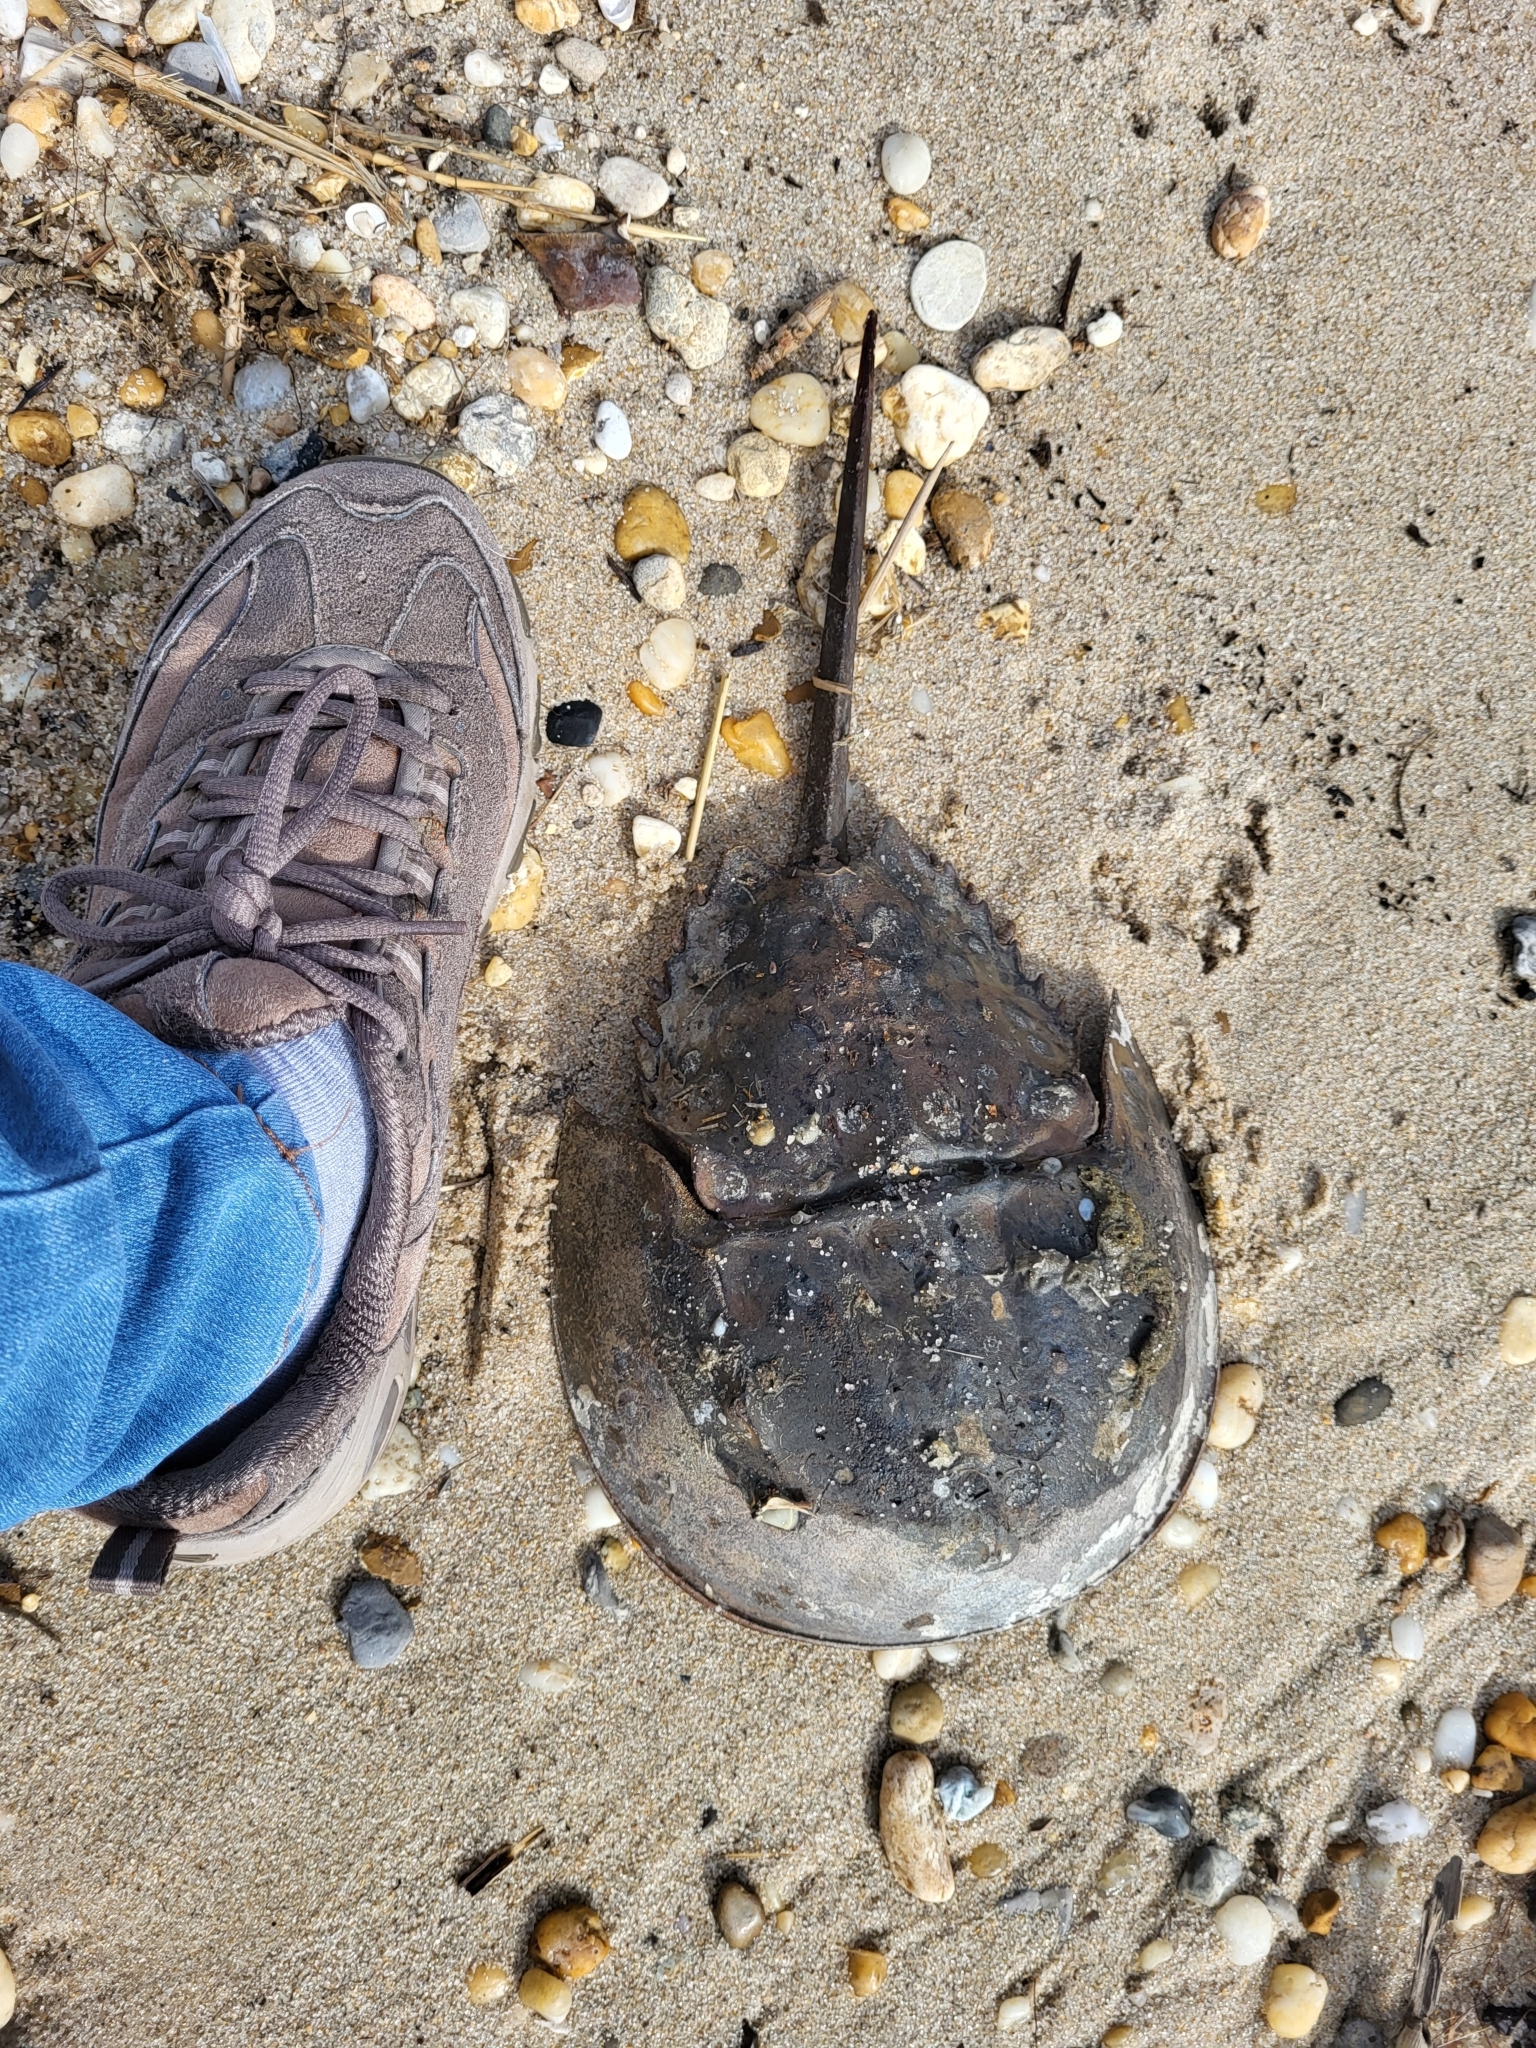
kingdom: Animalia
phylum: Arthropoda
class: Merostomata
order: Xiphosurida
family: Limulidae
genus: Limulus
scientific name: Limulus polyphemus
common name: Horseshoe crab
